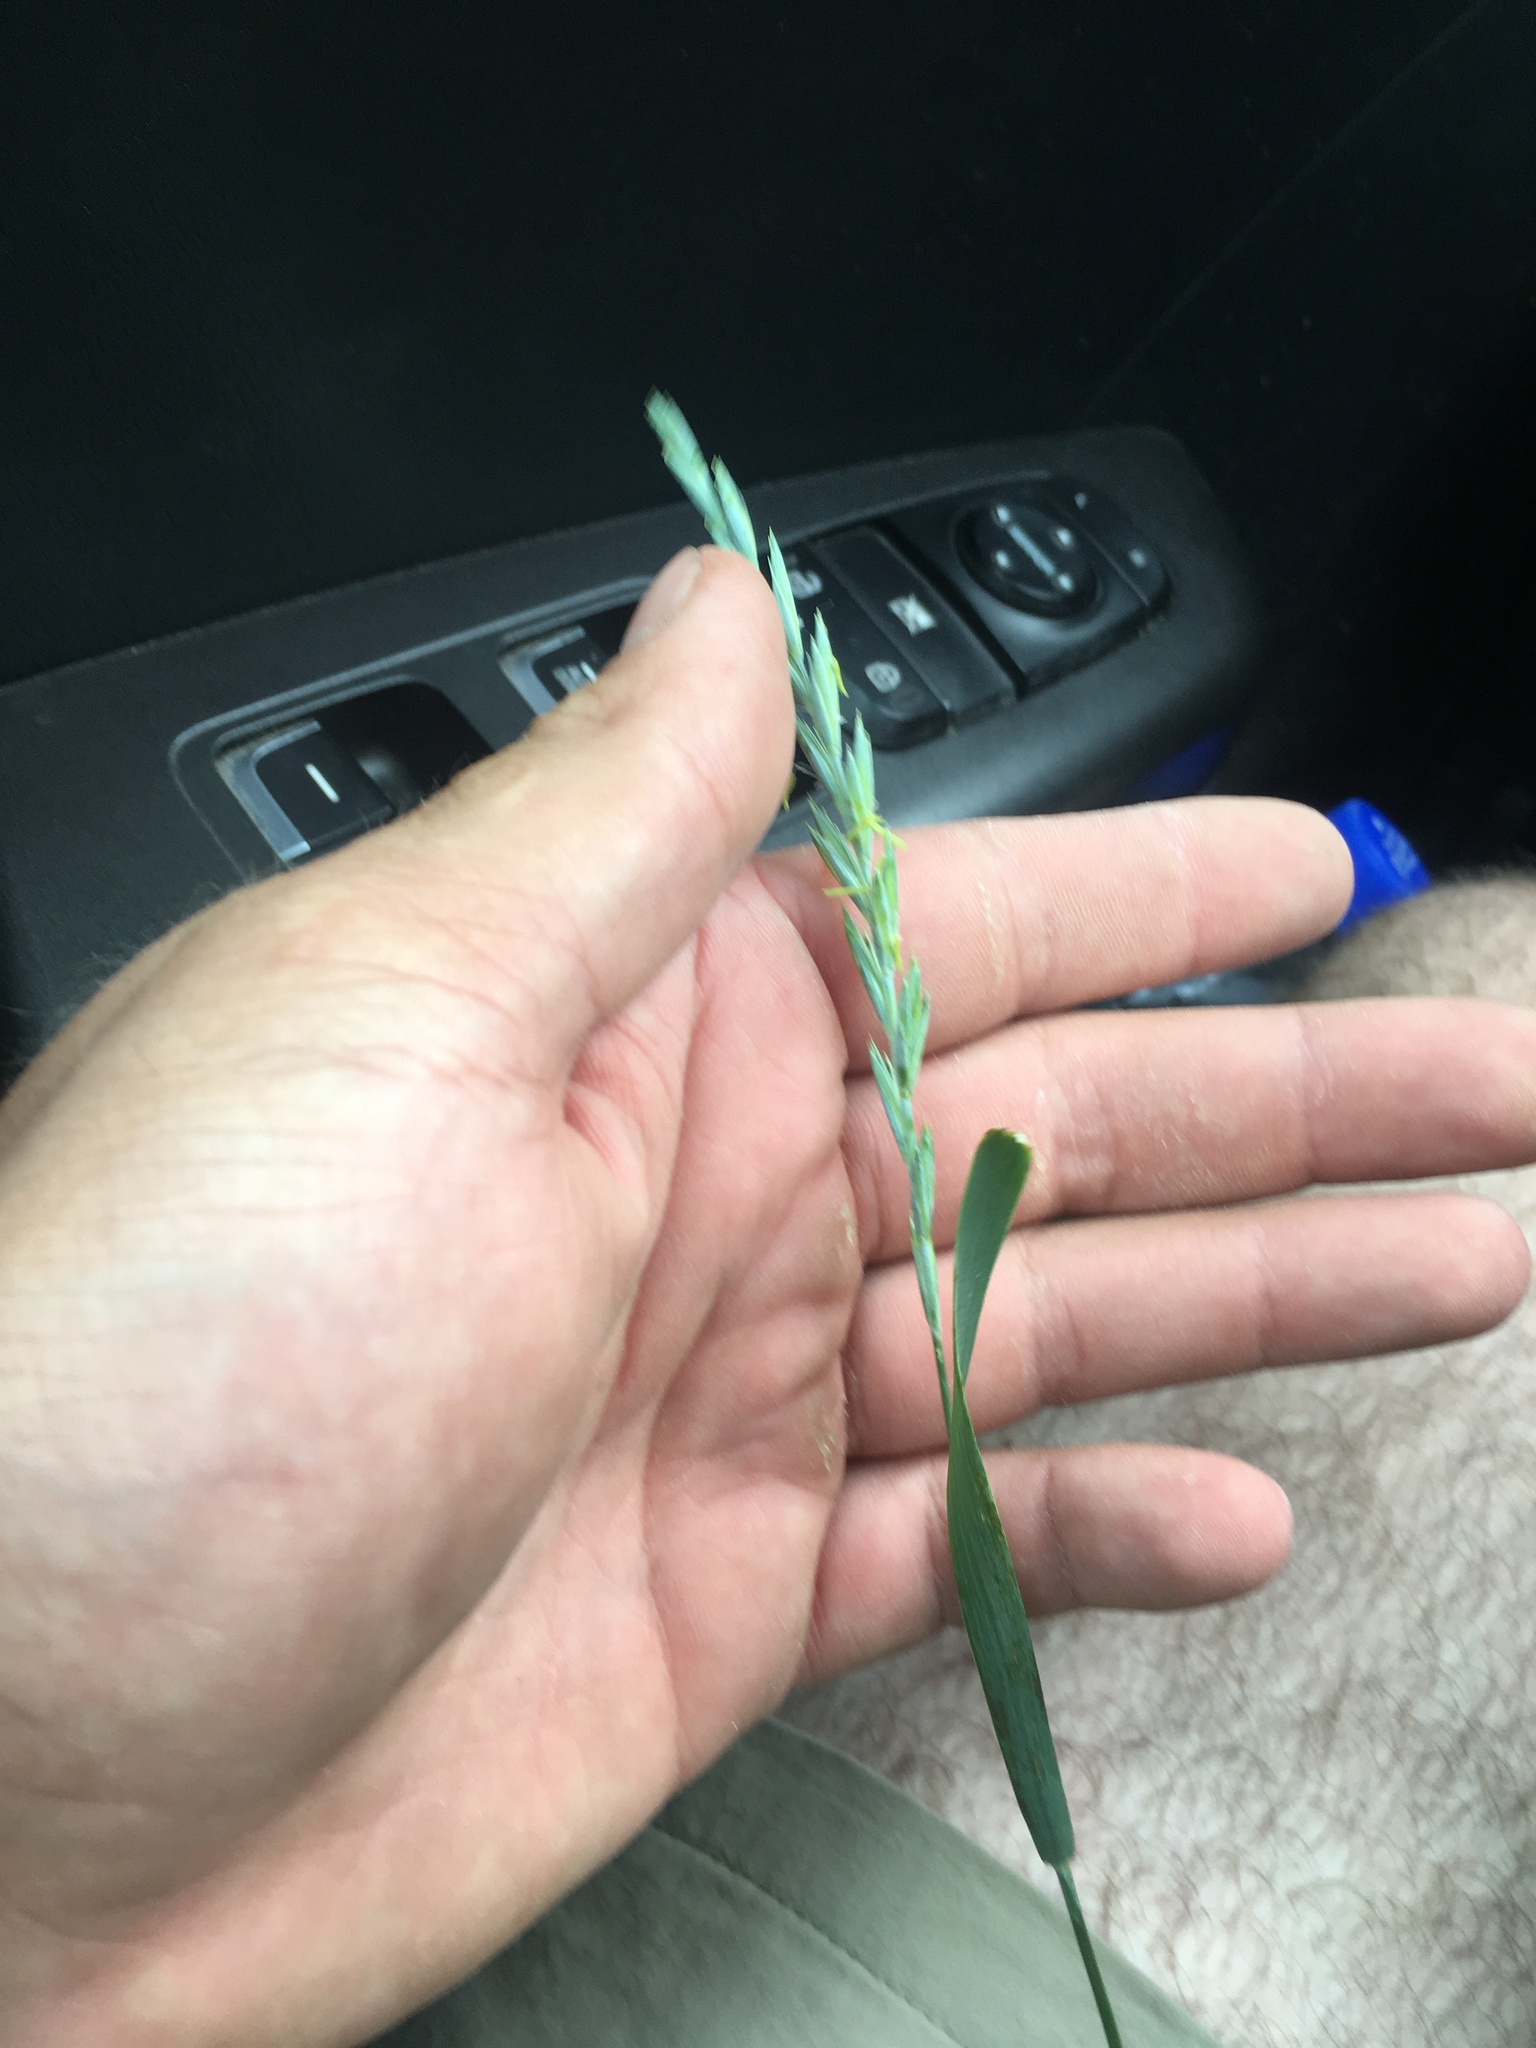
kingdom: Plantae
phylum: Tracheophyta
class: Liliopsida
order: Poales
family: Poaceae
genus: Elymus
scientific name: Elymus repens
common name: Quackgrass
